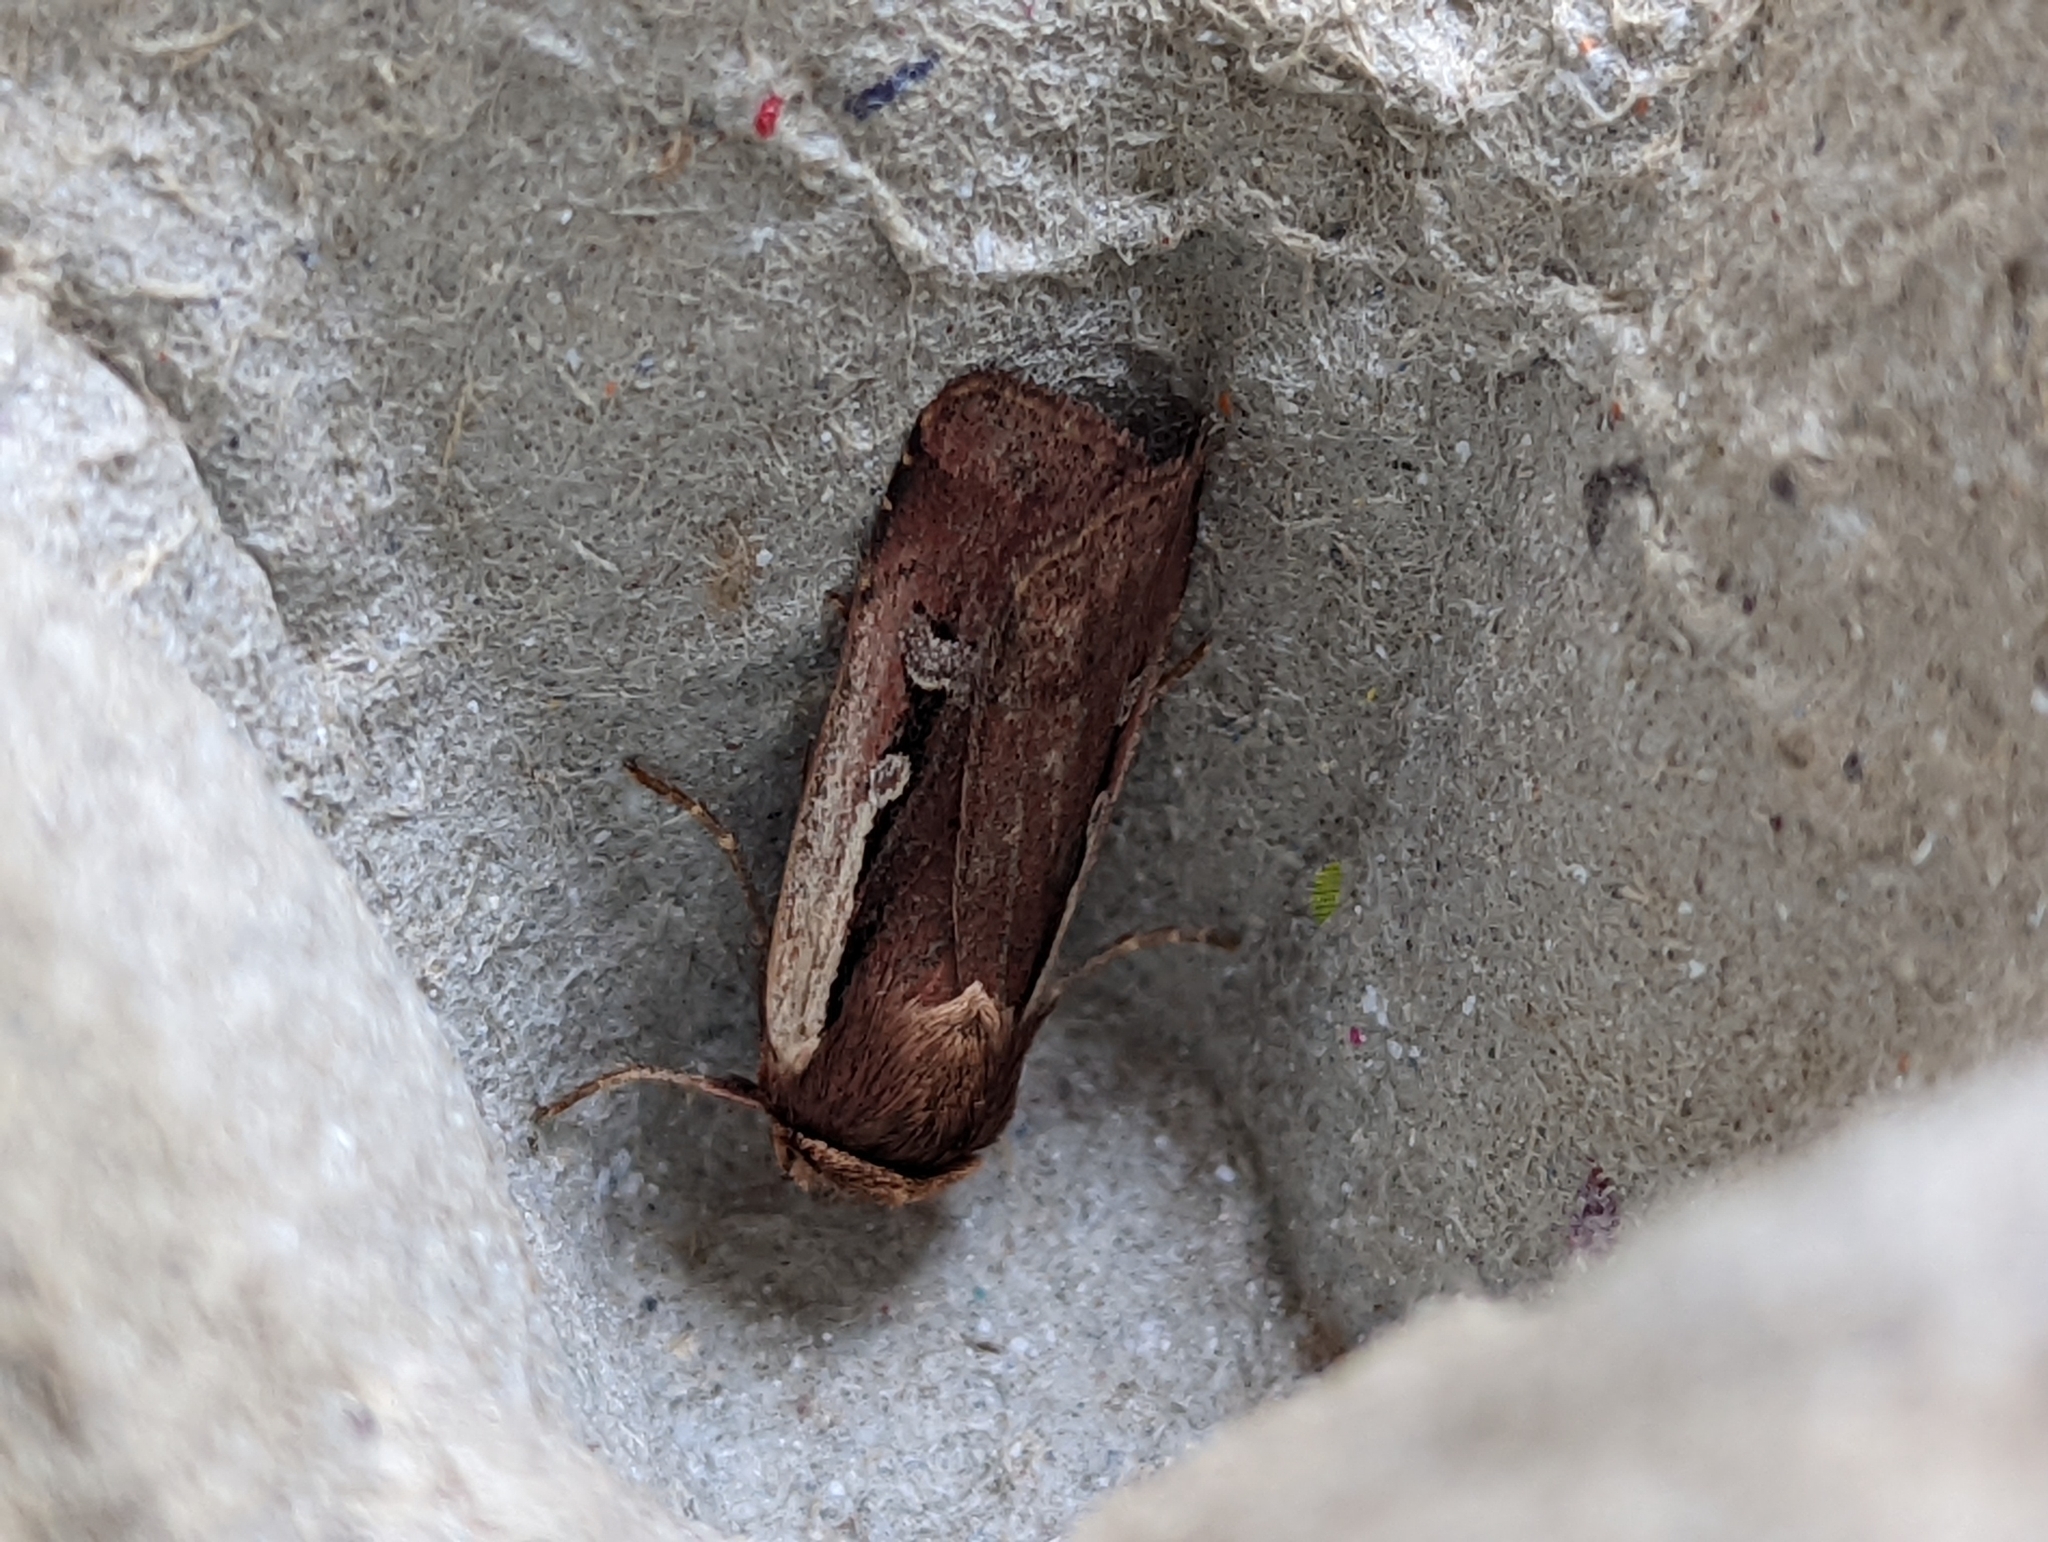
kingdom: Animalia
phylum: Arthropoda
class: Insecta
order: Lepidoptera
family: Noctuidae
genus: Ochropleura
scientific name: Ochropleura plecta
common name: Flame shoulder
